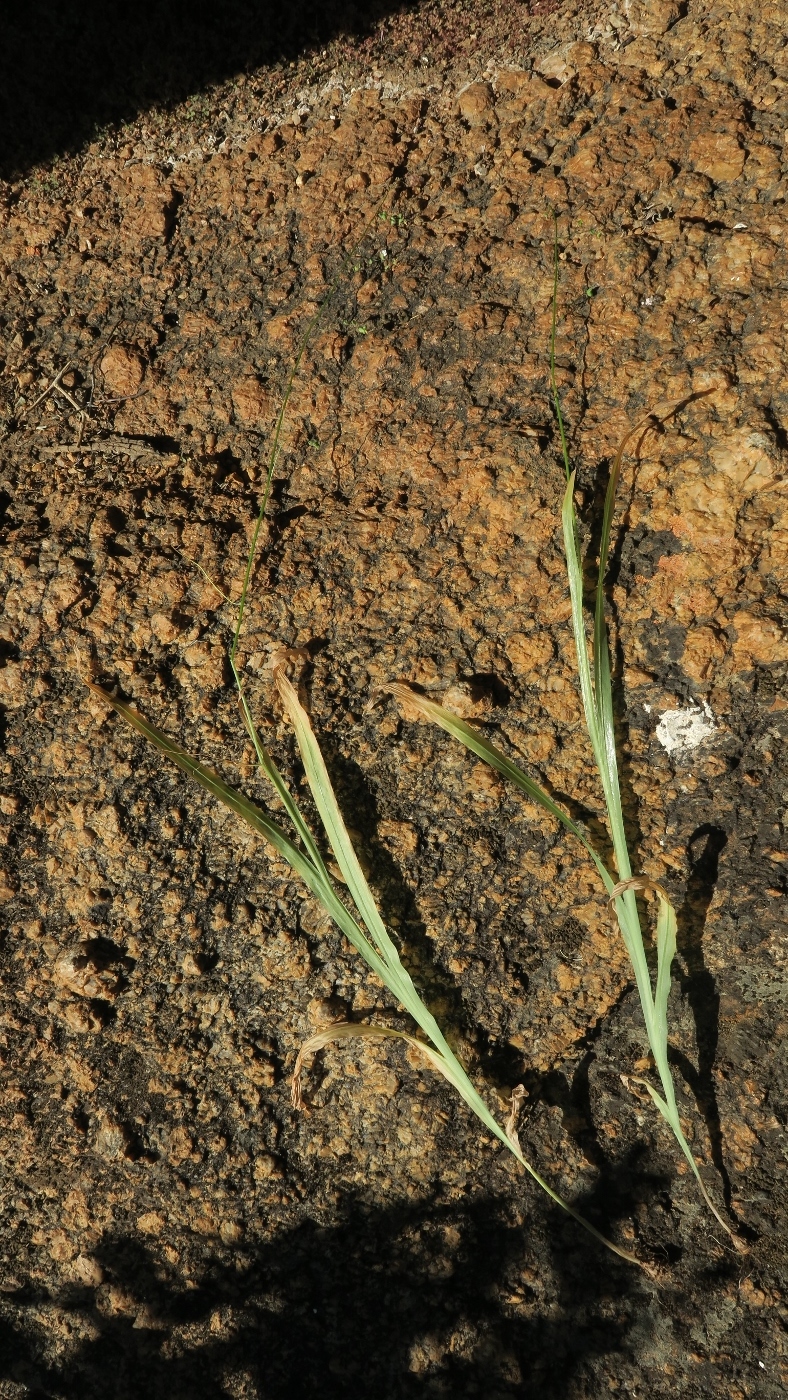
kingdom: Plantae
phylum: Tracheophyta
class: Liliopsida
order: Asparagales
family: Iridaceae
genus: Melasphaerula
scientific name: Melasphaerula graminea
